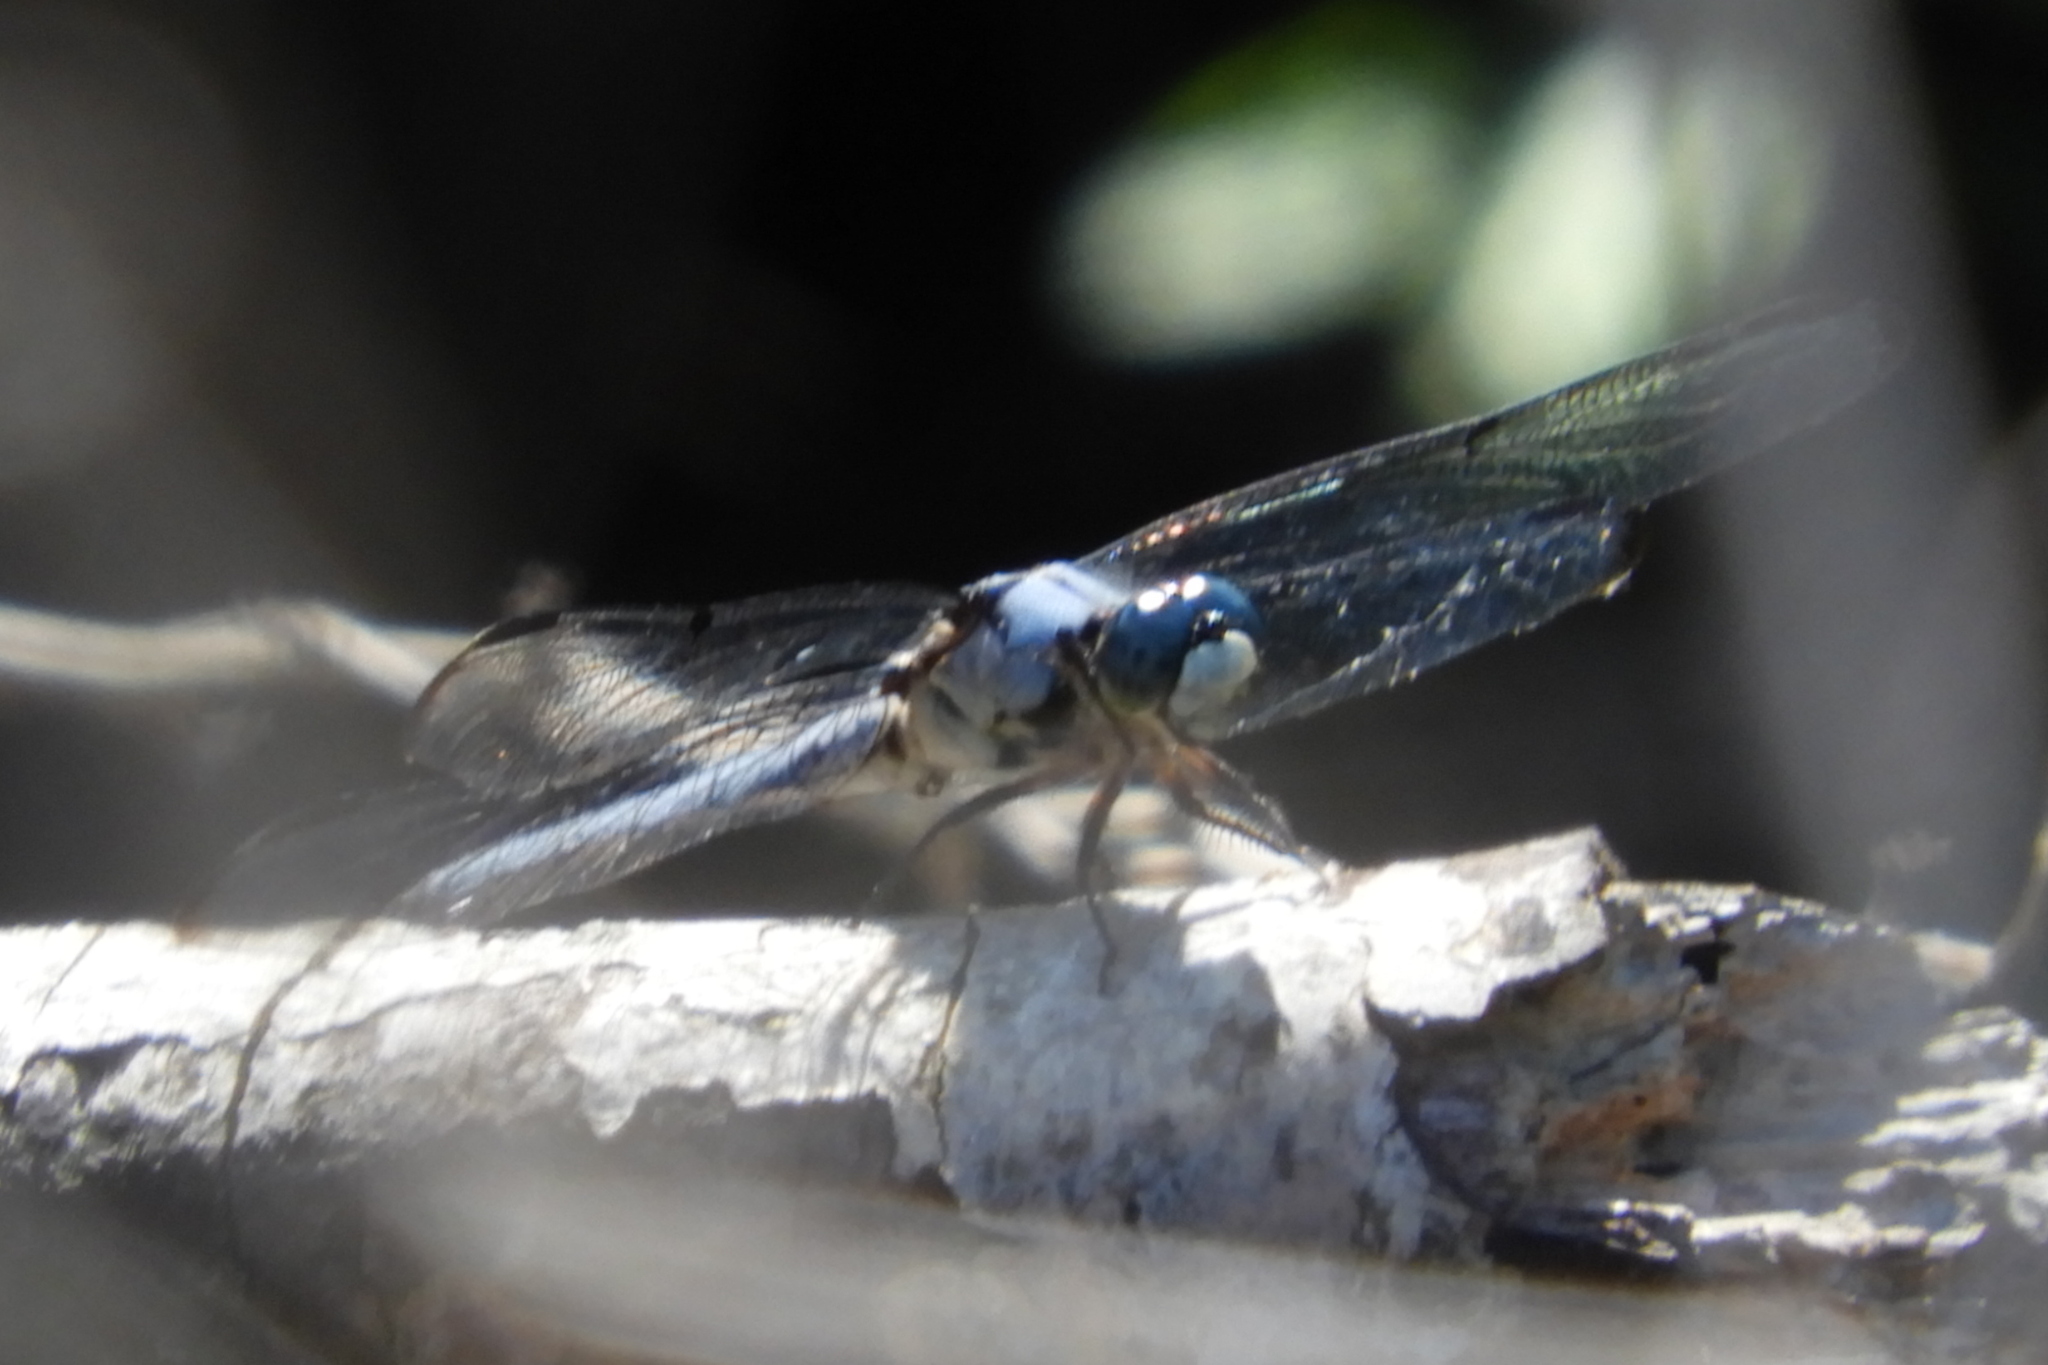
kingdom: Animalia
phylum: Arthropoda
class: Insecta
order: Odonata
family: Libellulidae
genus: Libellula
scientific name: Libellula vibrans
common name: Great blue skimmer
